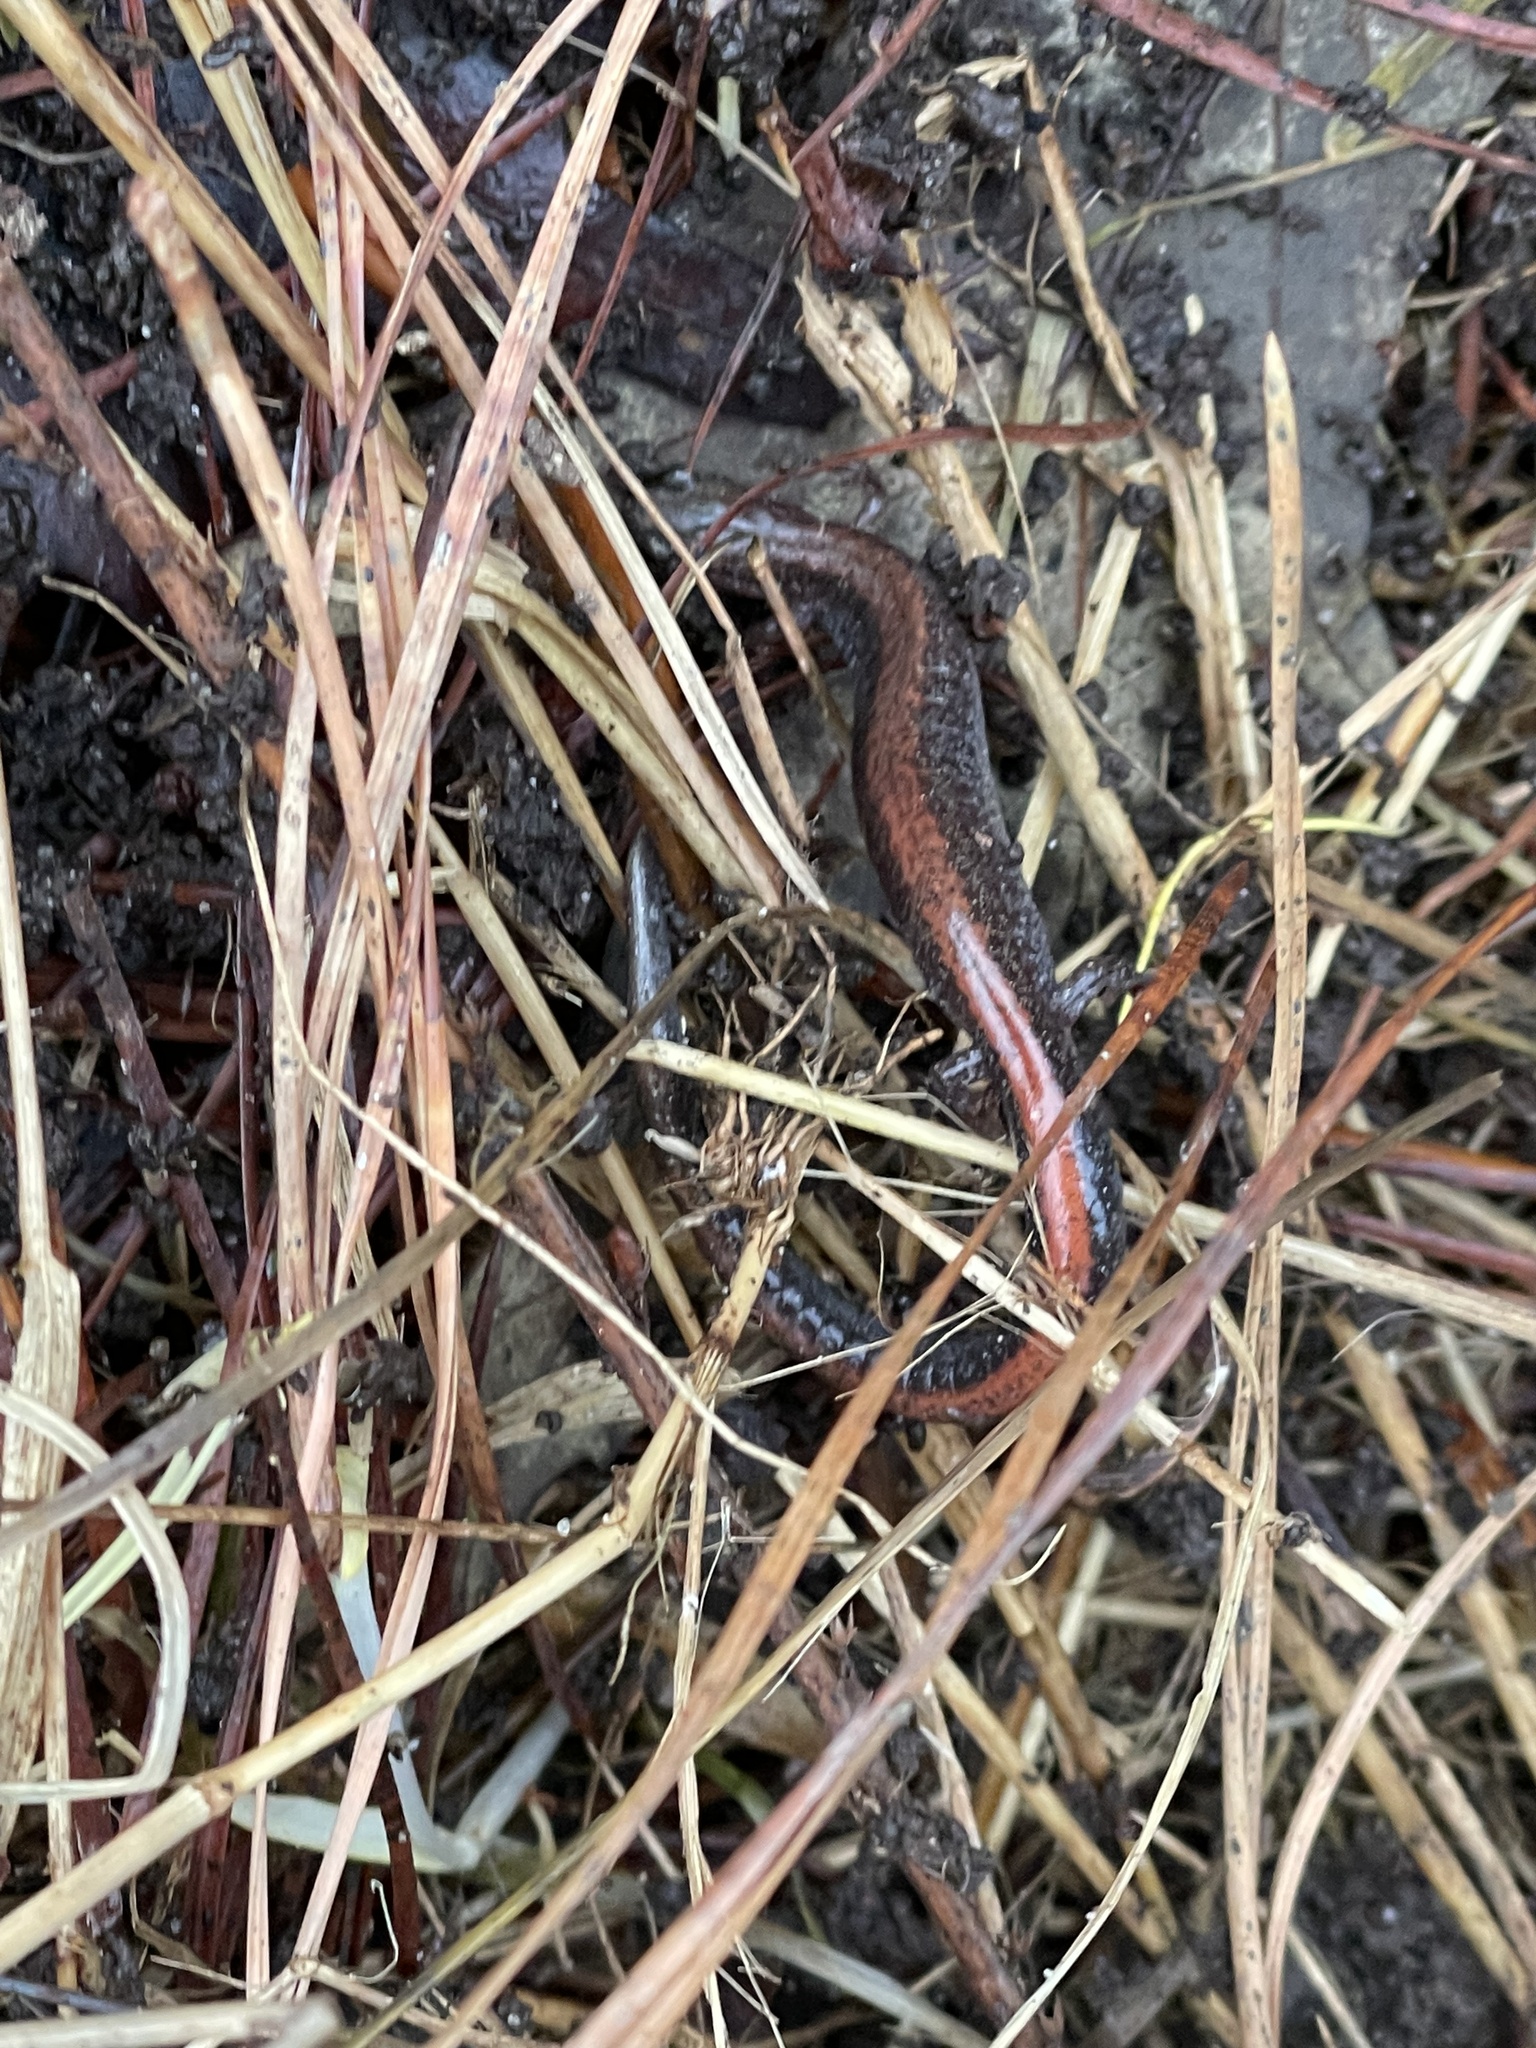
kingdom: Animalia
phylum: Chordata
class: Amphibia
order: Caudata
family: Plethodontidae
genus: Plethodon
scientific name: Plethodon cinereus
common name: Redback salamander
